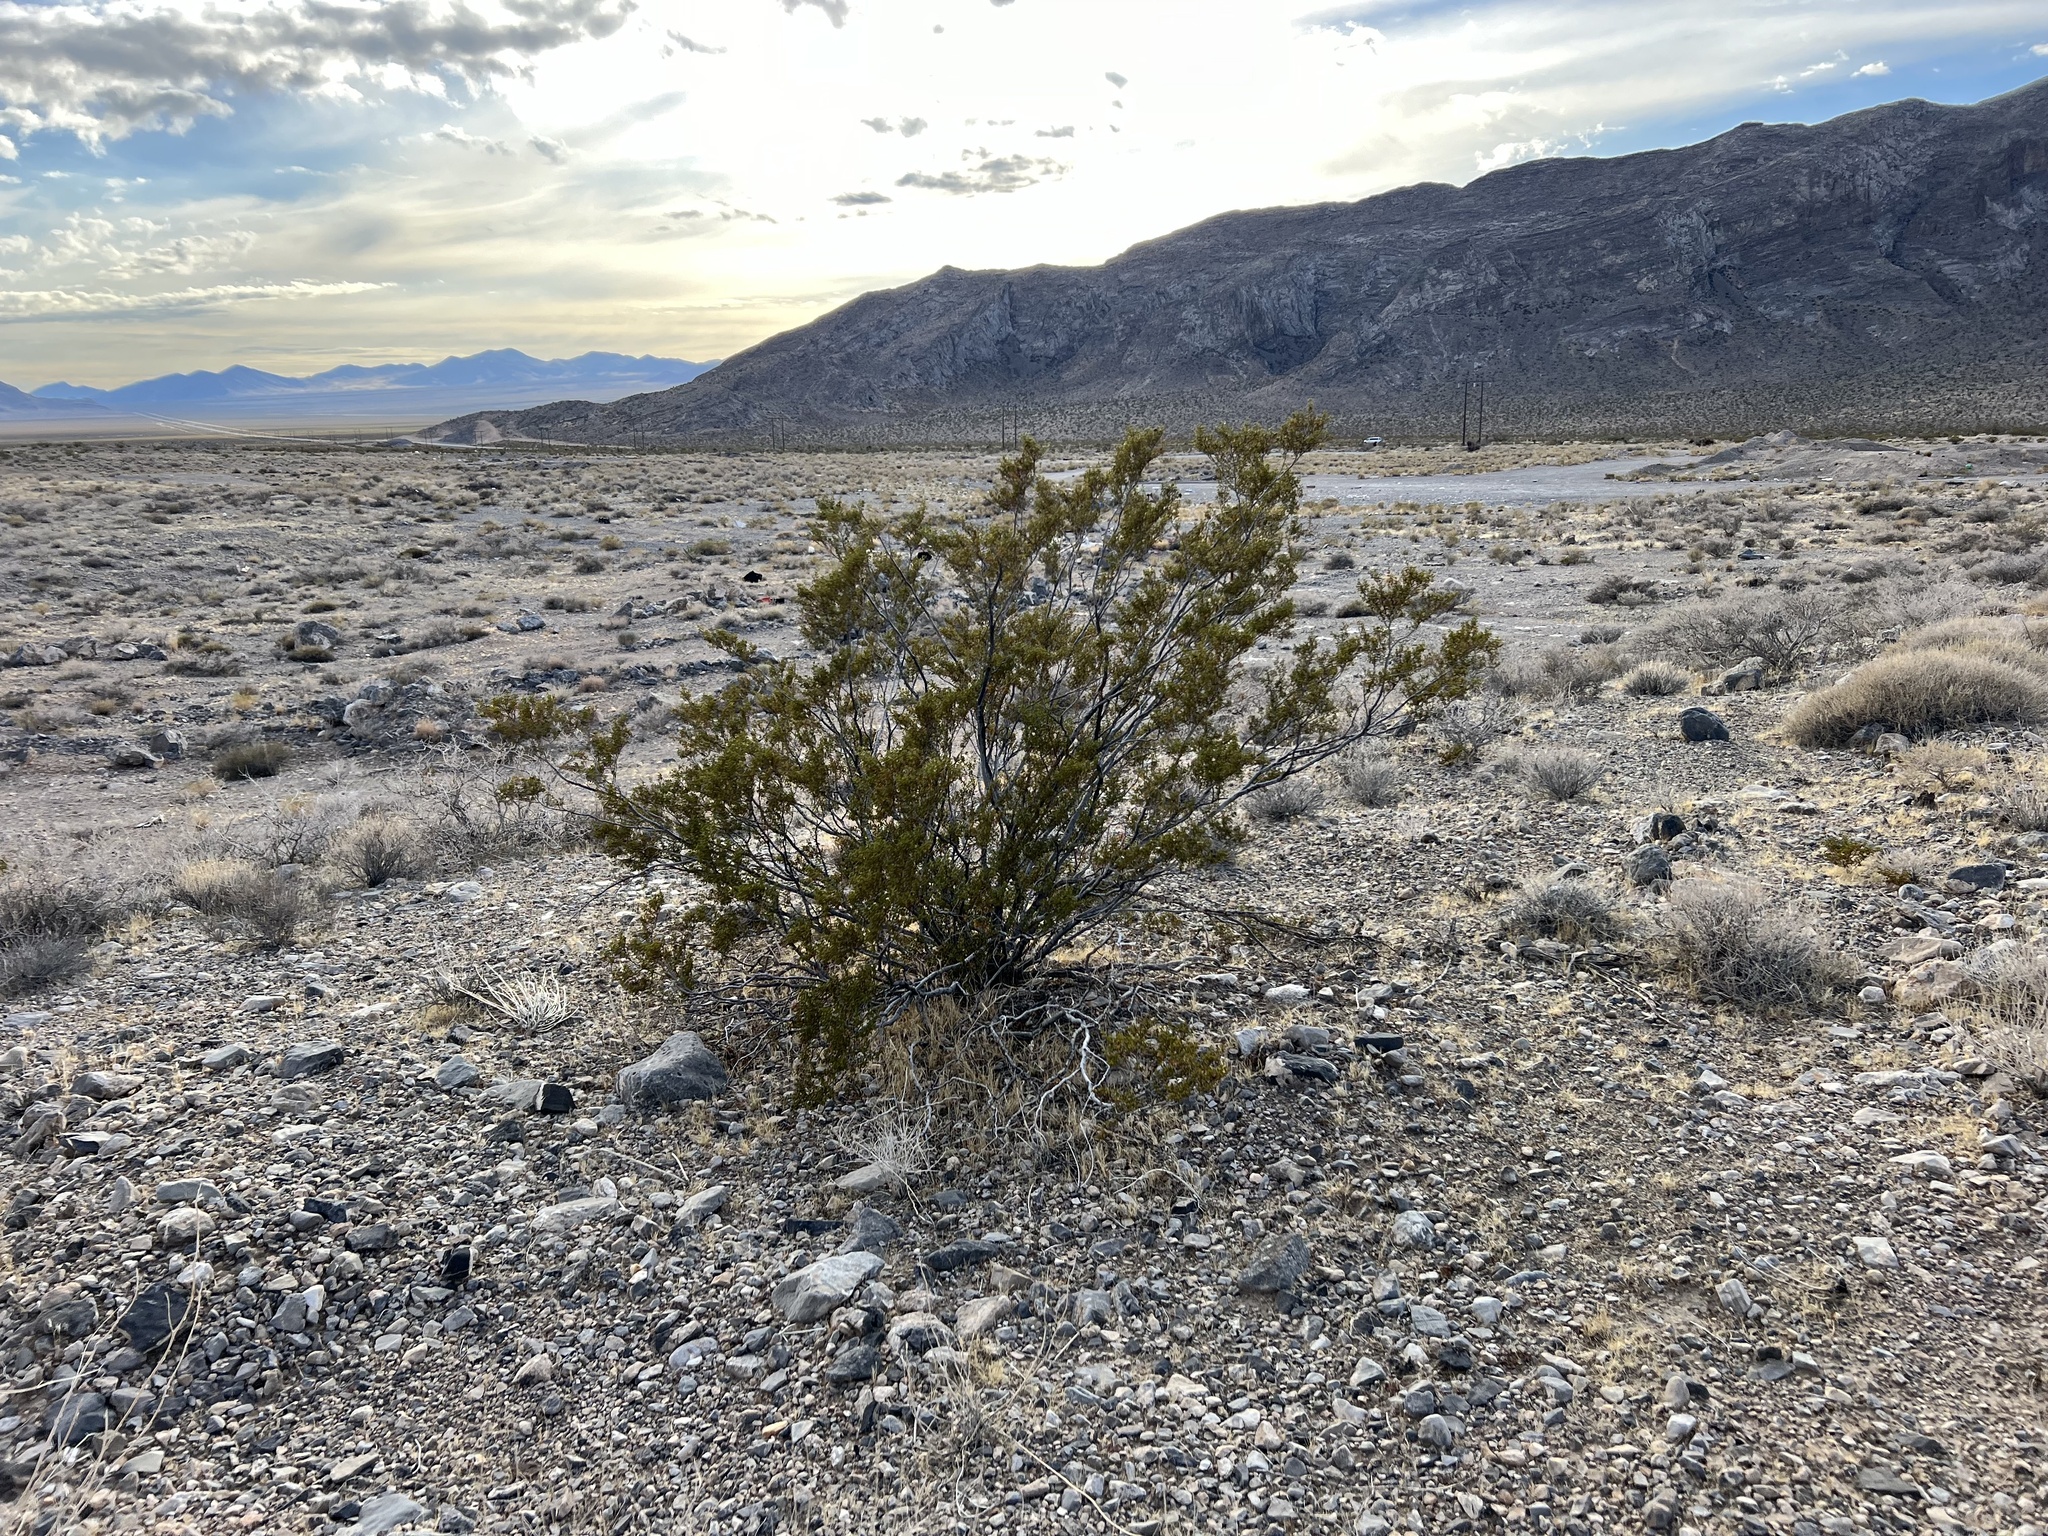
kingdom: Plantae
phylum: Tracheophyta
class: Magnoliopsida
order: Zygophyllales
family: Zygophyllaceae
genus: Larrea
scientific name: Larrea tridentata
